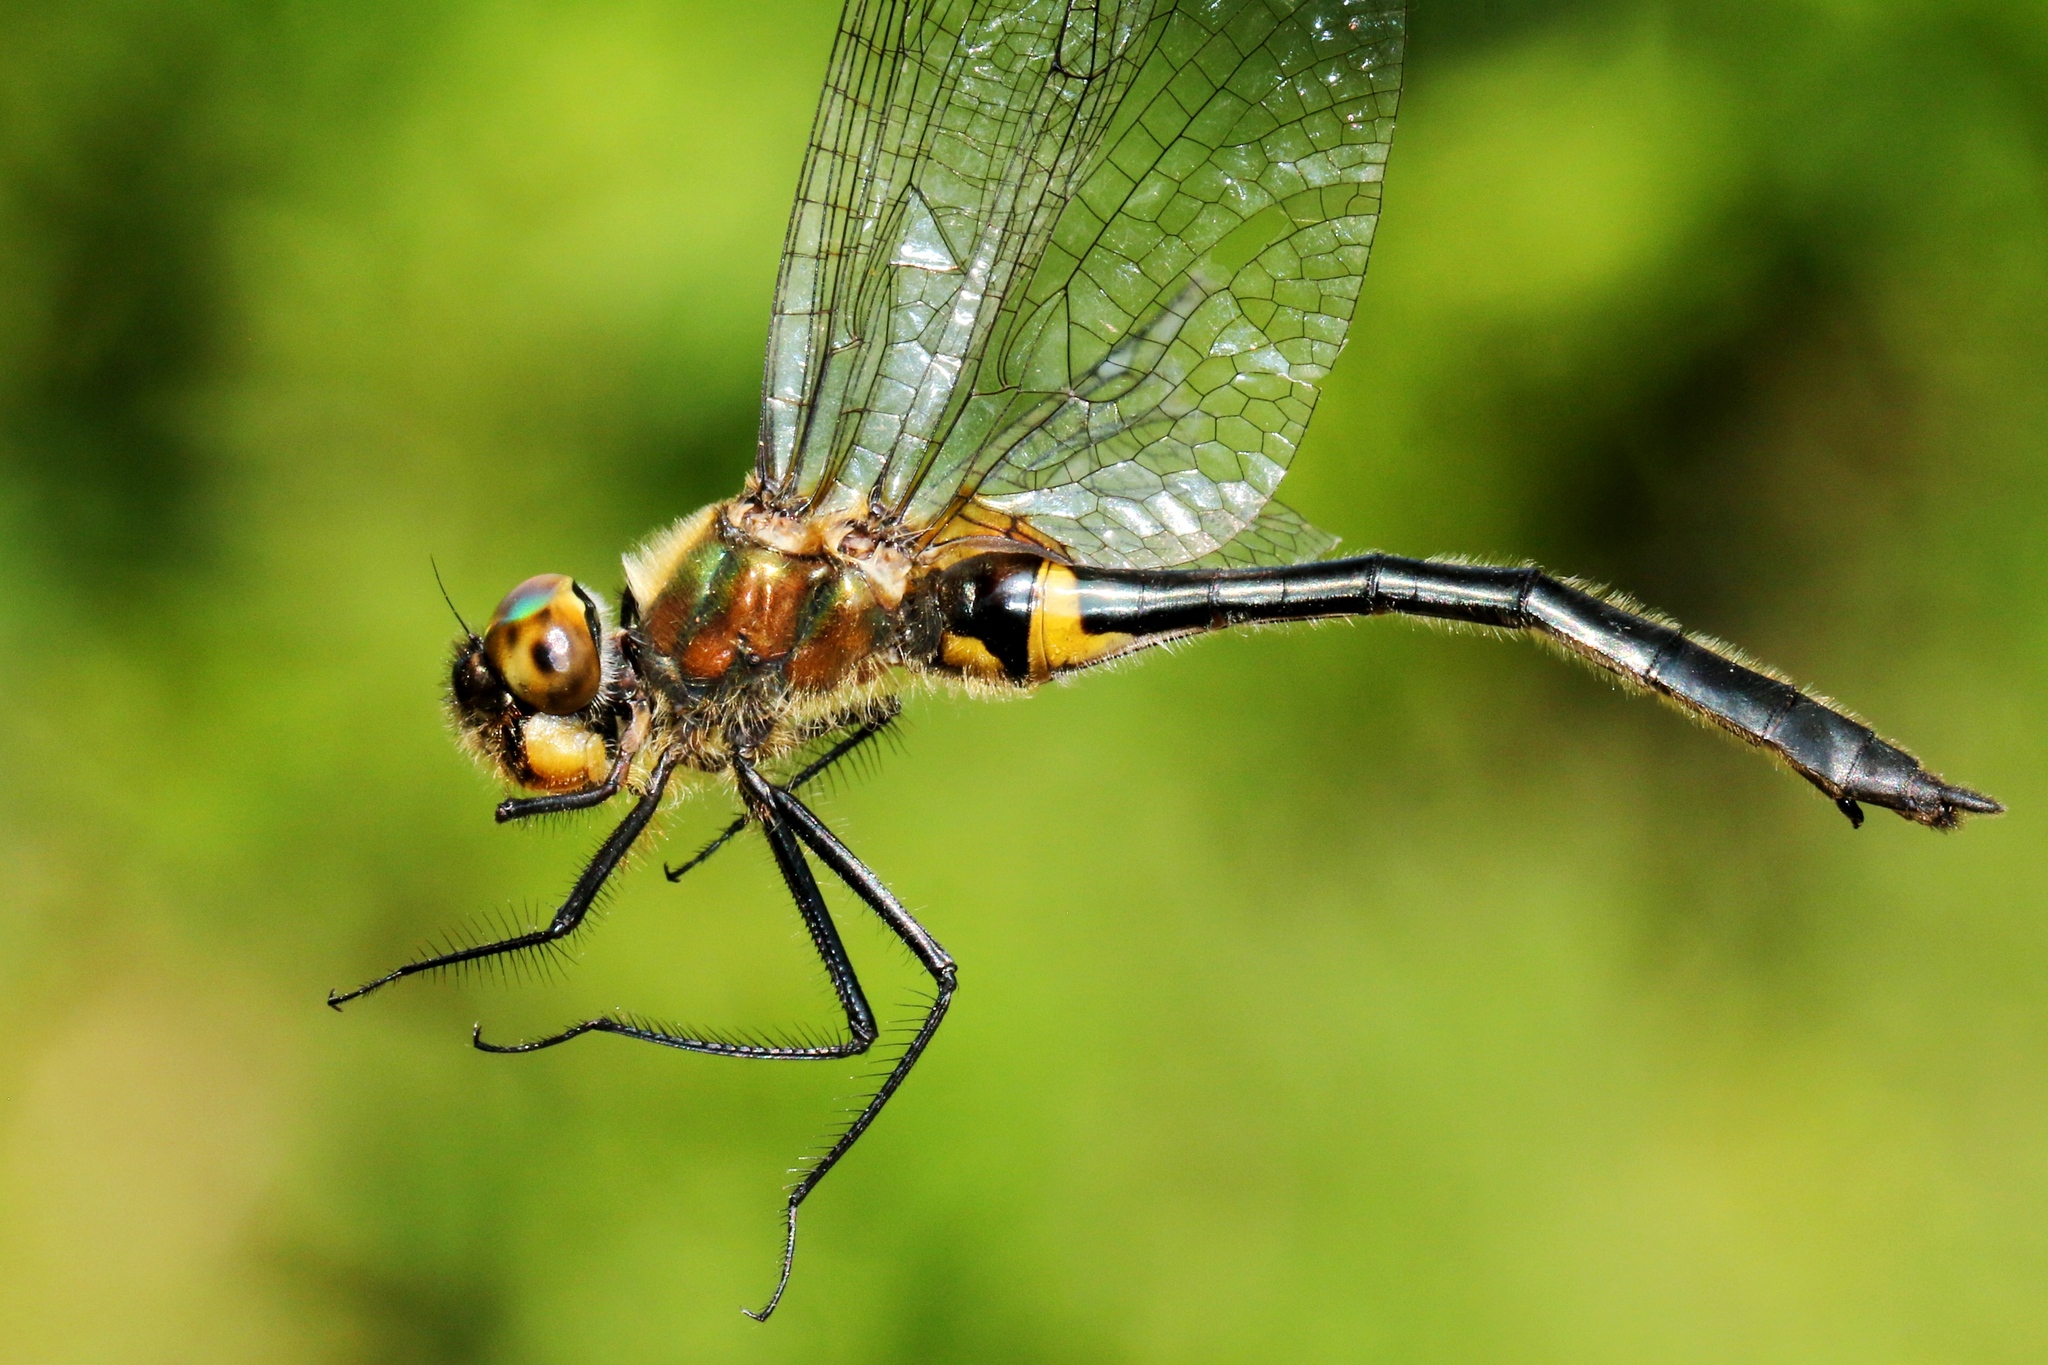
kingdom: Animalia
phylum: Arthropoda
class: Insecta
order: Odonata
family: Corduliidae
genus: Dorocordulia
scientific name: Dorocordulia libera
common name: Racket-tailed emerald
